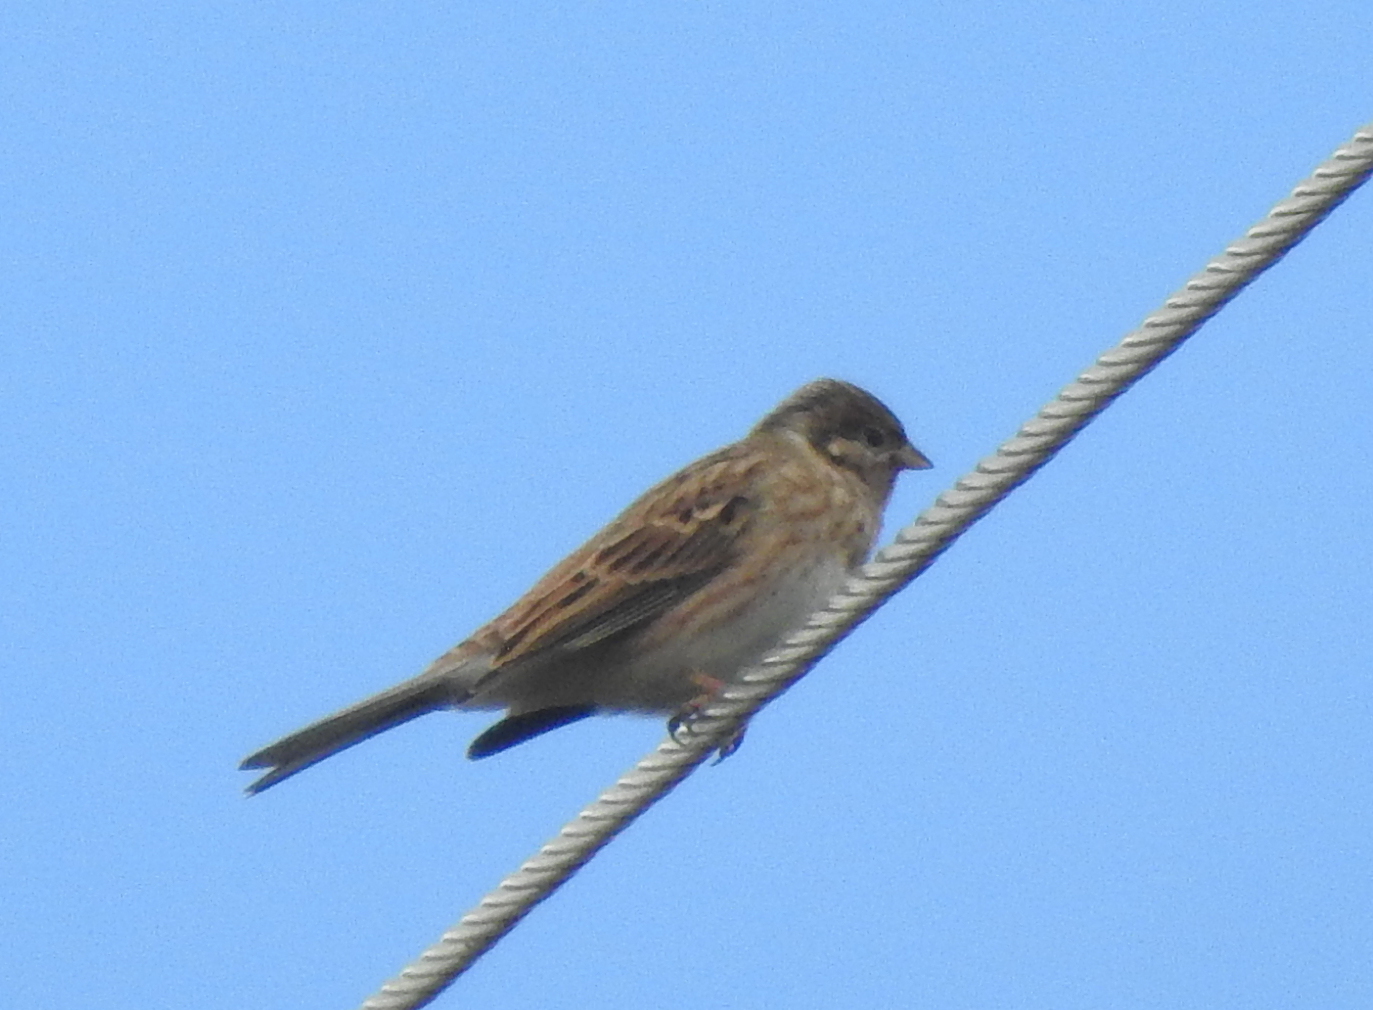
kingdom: Animalia
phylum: Chordata
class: Aves
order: Passeriformes
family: Emberizidae
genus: Emberiza
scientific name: Emberiza leucocephalos
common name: Pine bunting
